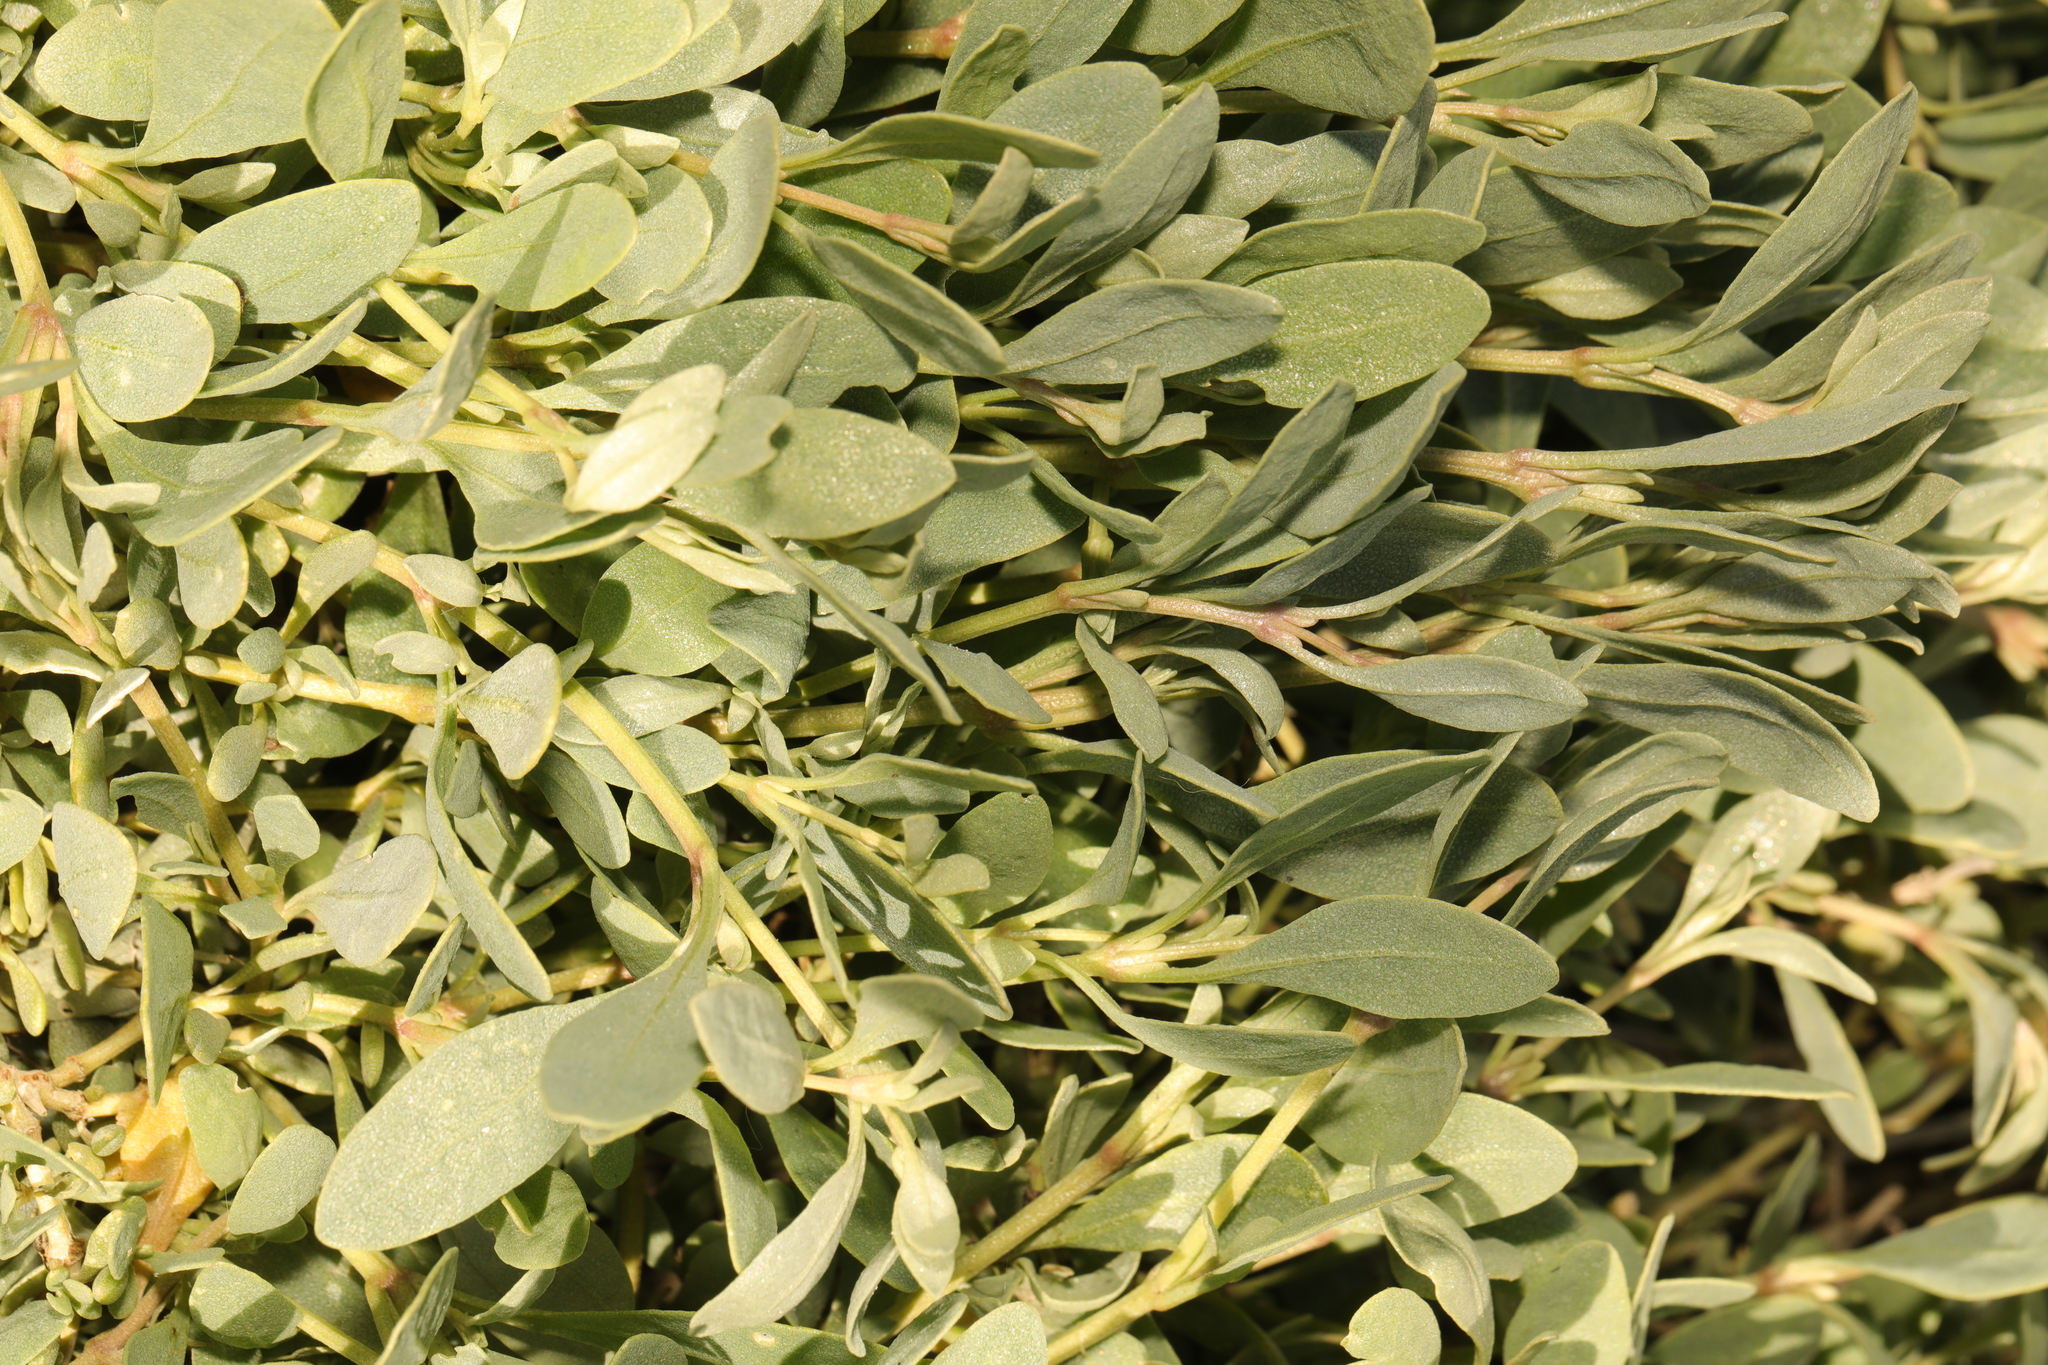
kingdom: Plantae
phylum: Tracheophyta
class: Magnoliopsida
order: Caryophyllales
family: Amaranthaceae
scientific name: Amaranthaceae
